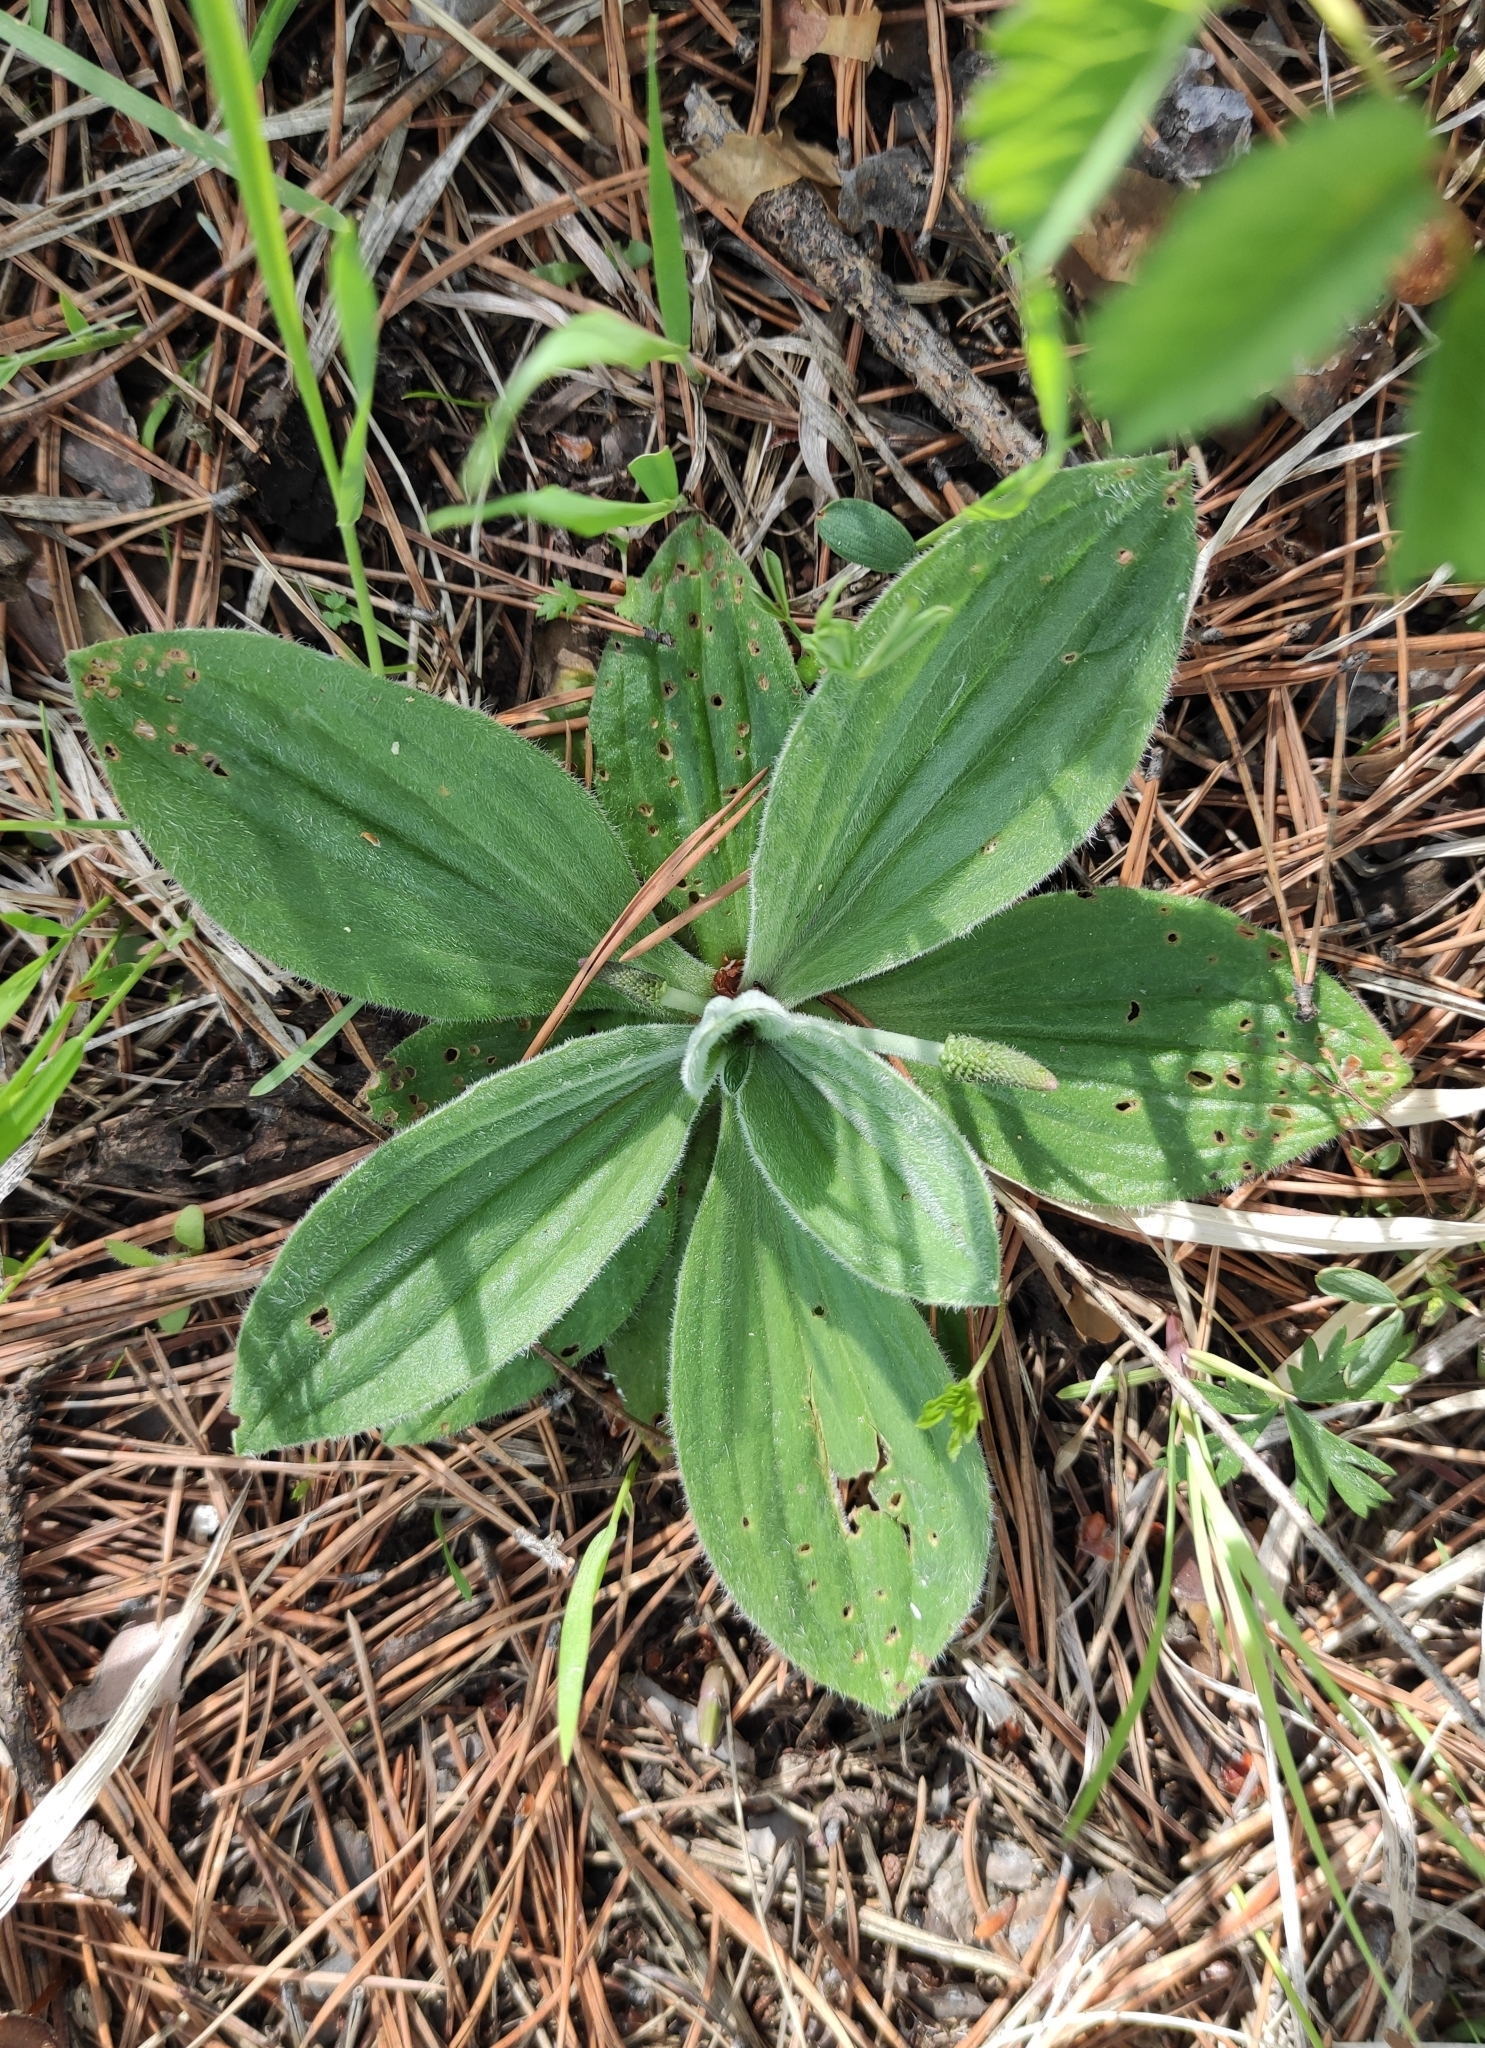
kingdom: Plantae
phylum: Tracheophyta
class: Magnoliopsida
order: Lamiales
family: Plantaginaceae
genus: Plantago
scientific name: Plantago media
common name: Hoary plantain
